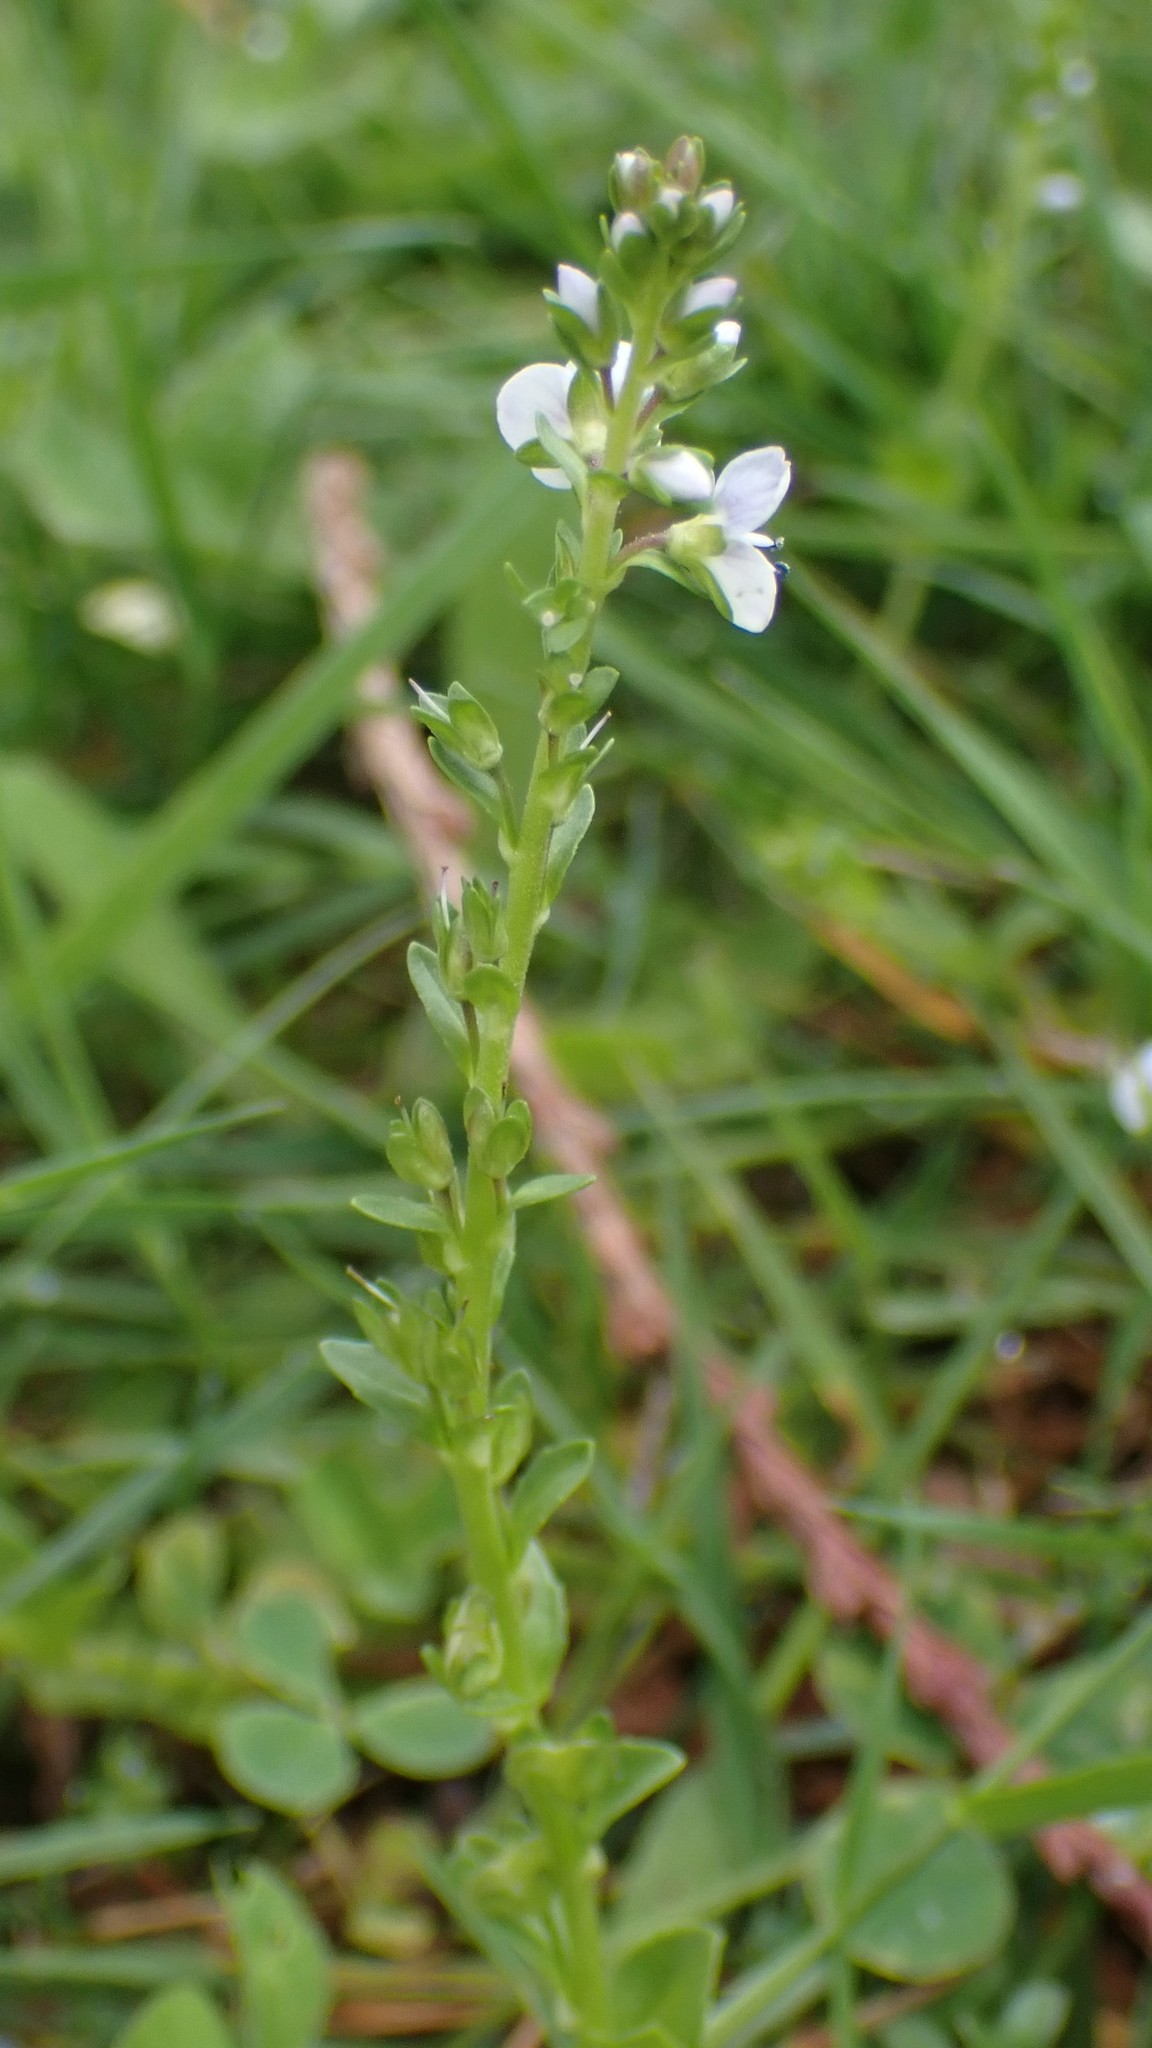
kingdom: Plantae
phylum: Tracheophyta
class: Magnoliopsida
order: Lamiales
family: Plantaginaceae
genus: Veronica
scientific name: Veronica serpyllifolia
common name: Thyme-leaved speedwell
